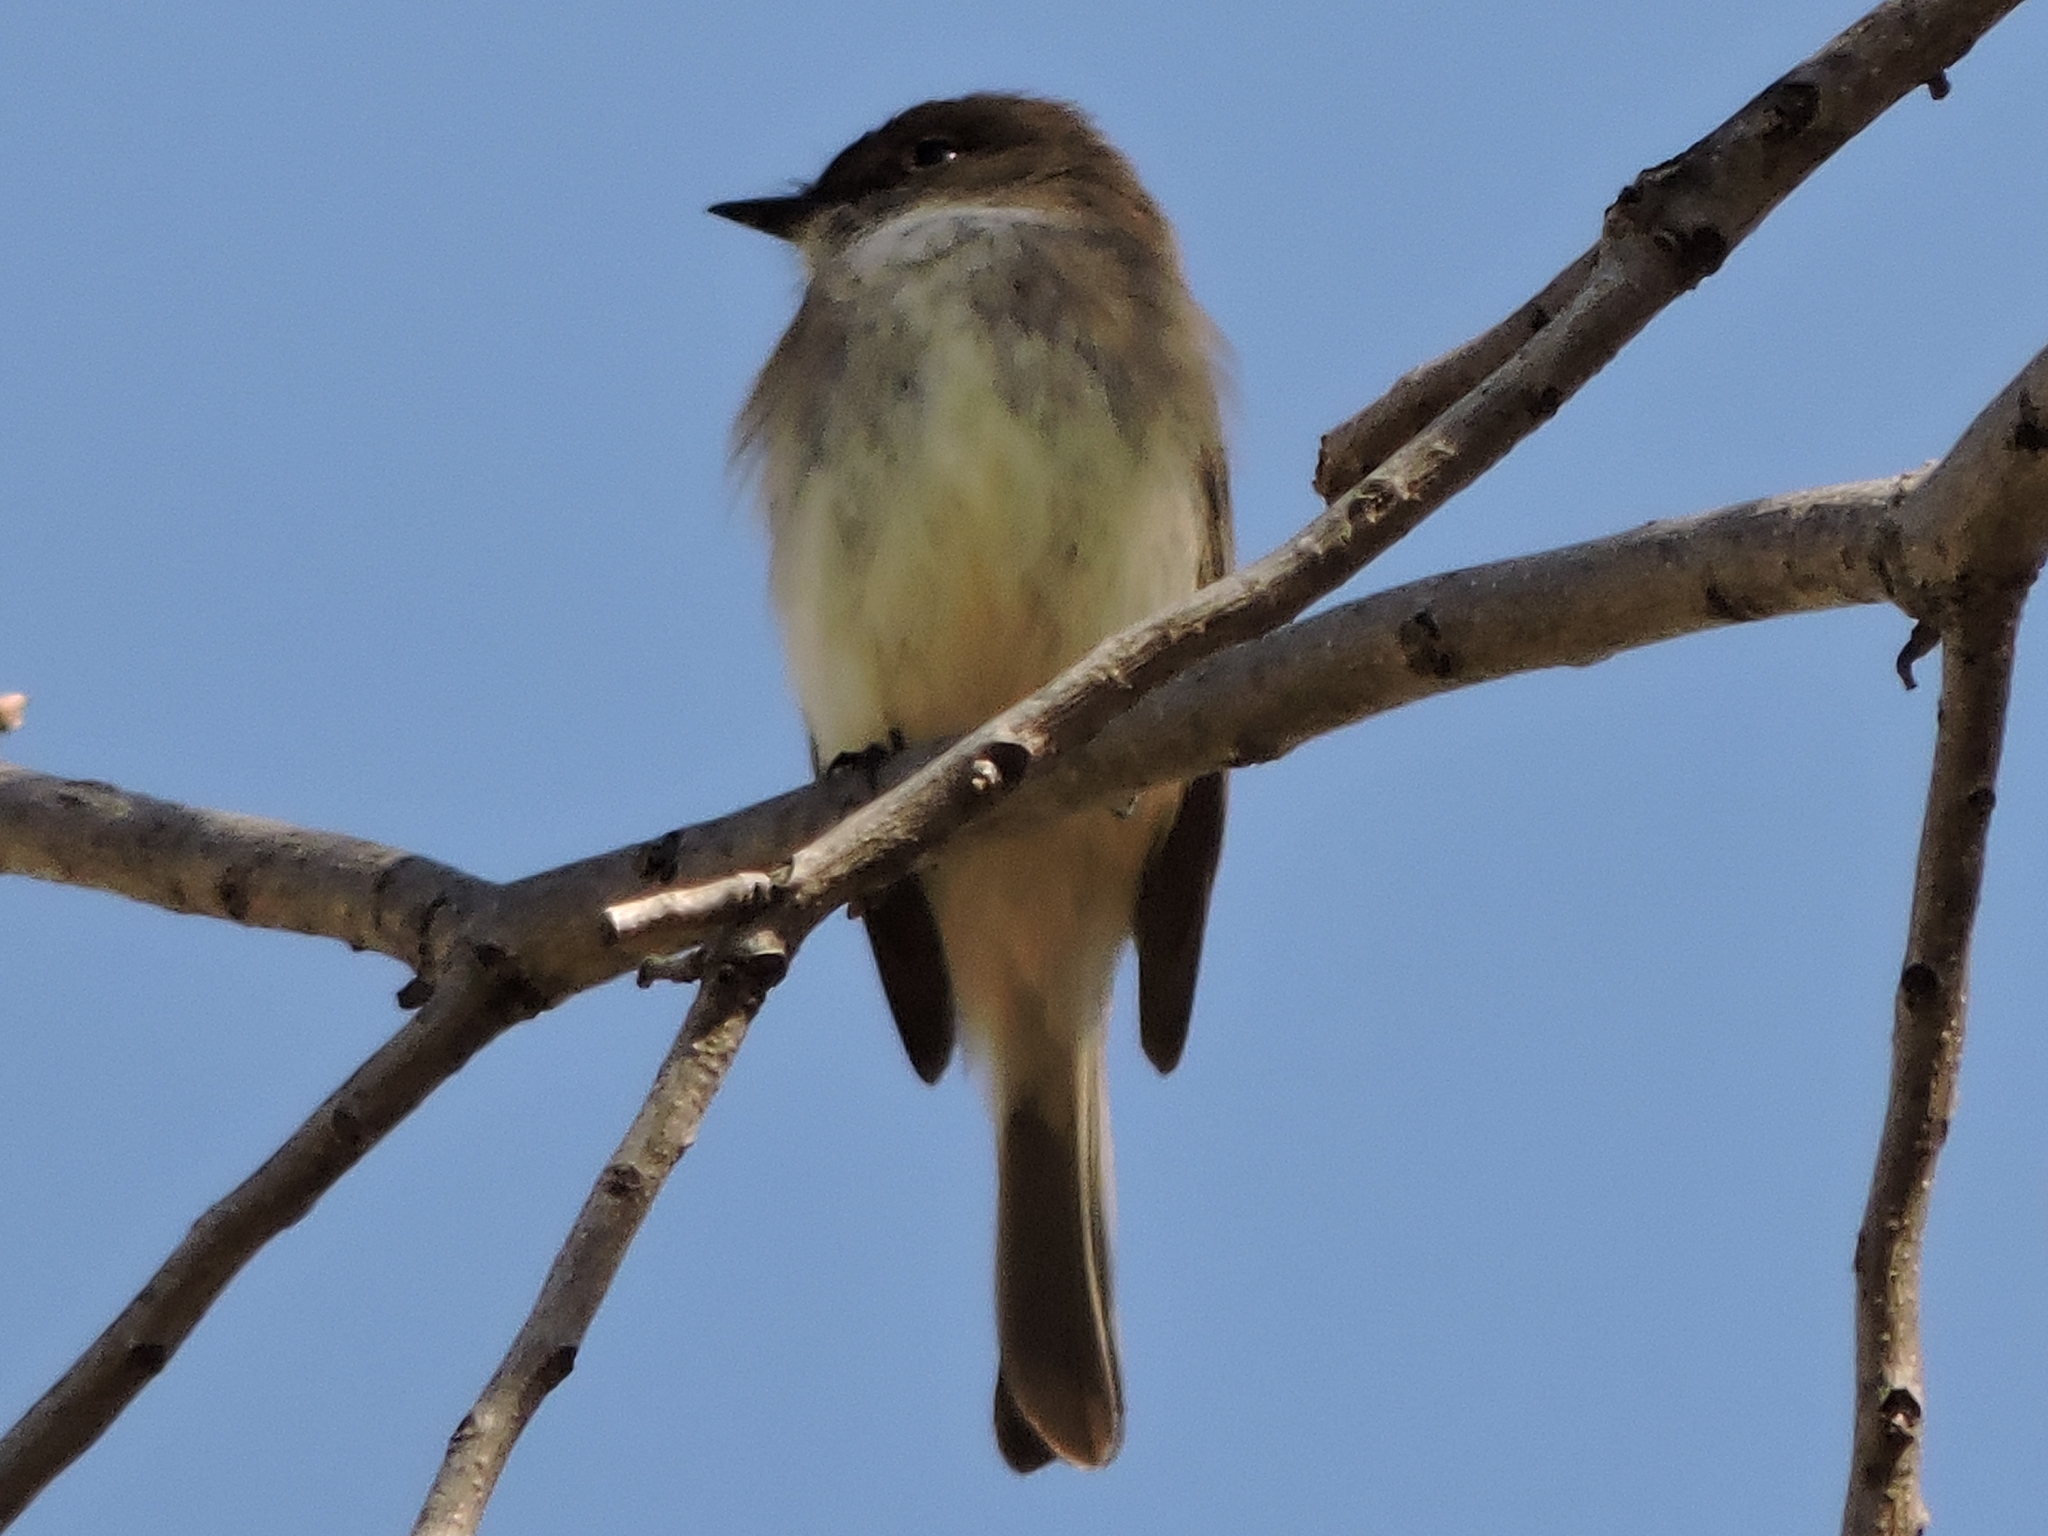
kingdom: Animalia
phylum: Chordata
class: Aves
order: Passeriformes
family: Tyrannidae
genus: Sayornis
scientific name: Sayornis phoebe
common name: Eastern phoebe
